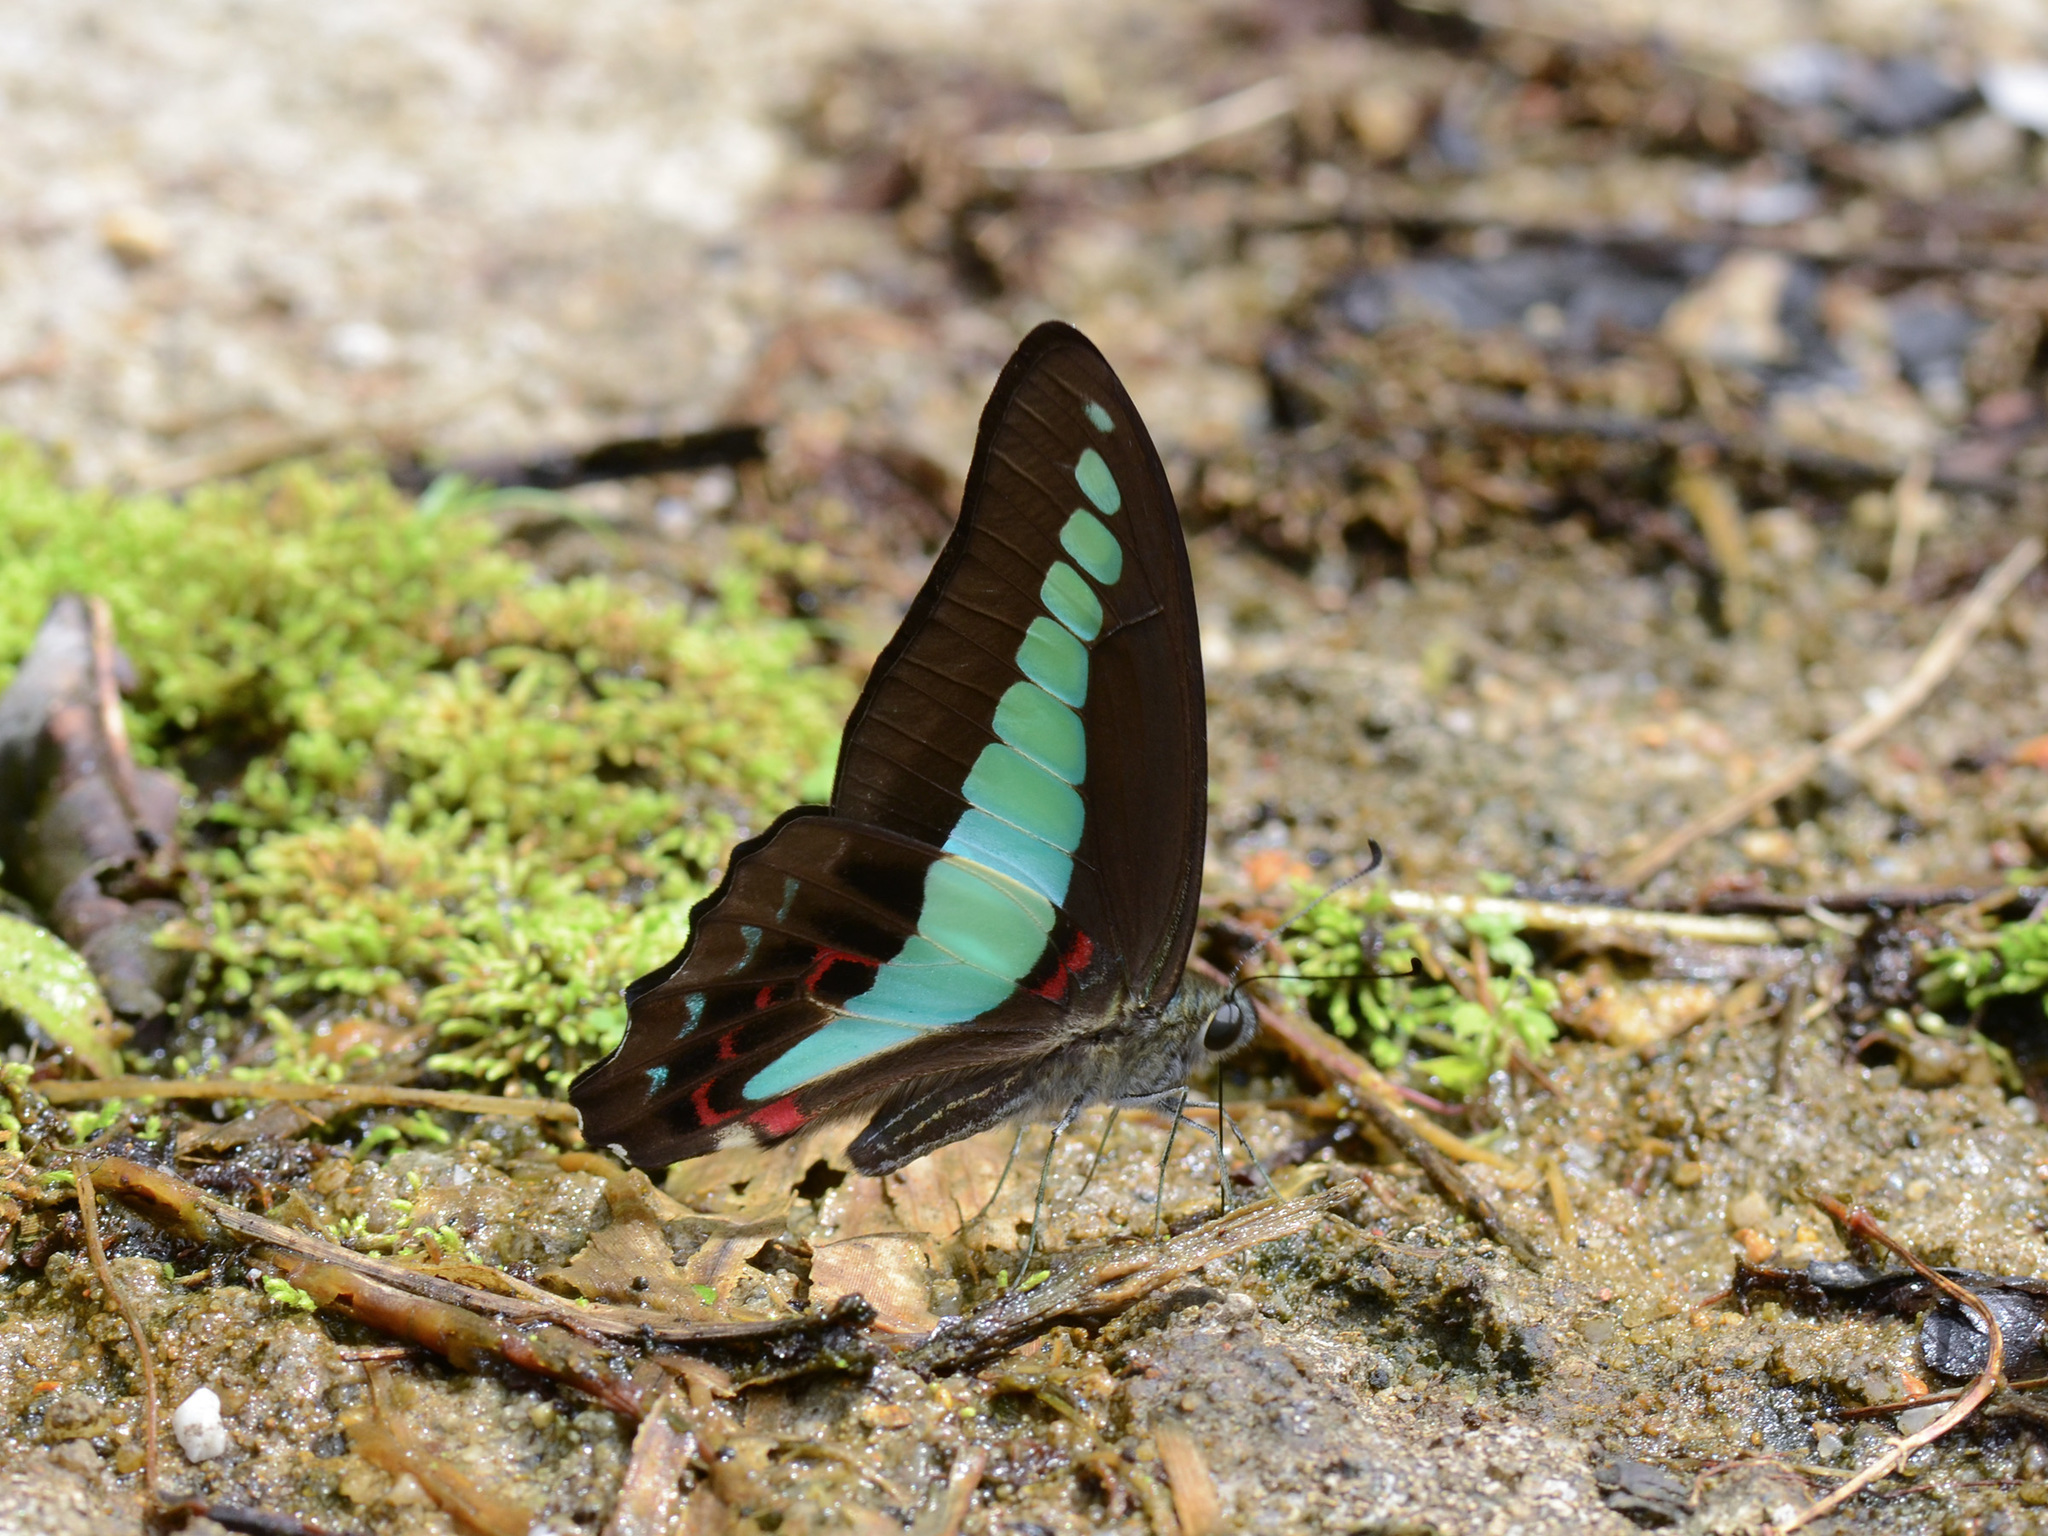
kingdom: Fungi
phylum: Ascomycota
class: Sordariomycetes
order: Microascales
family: Microascaceae
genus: Graphium
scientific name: Graphium sarpedon
